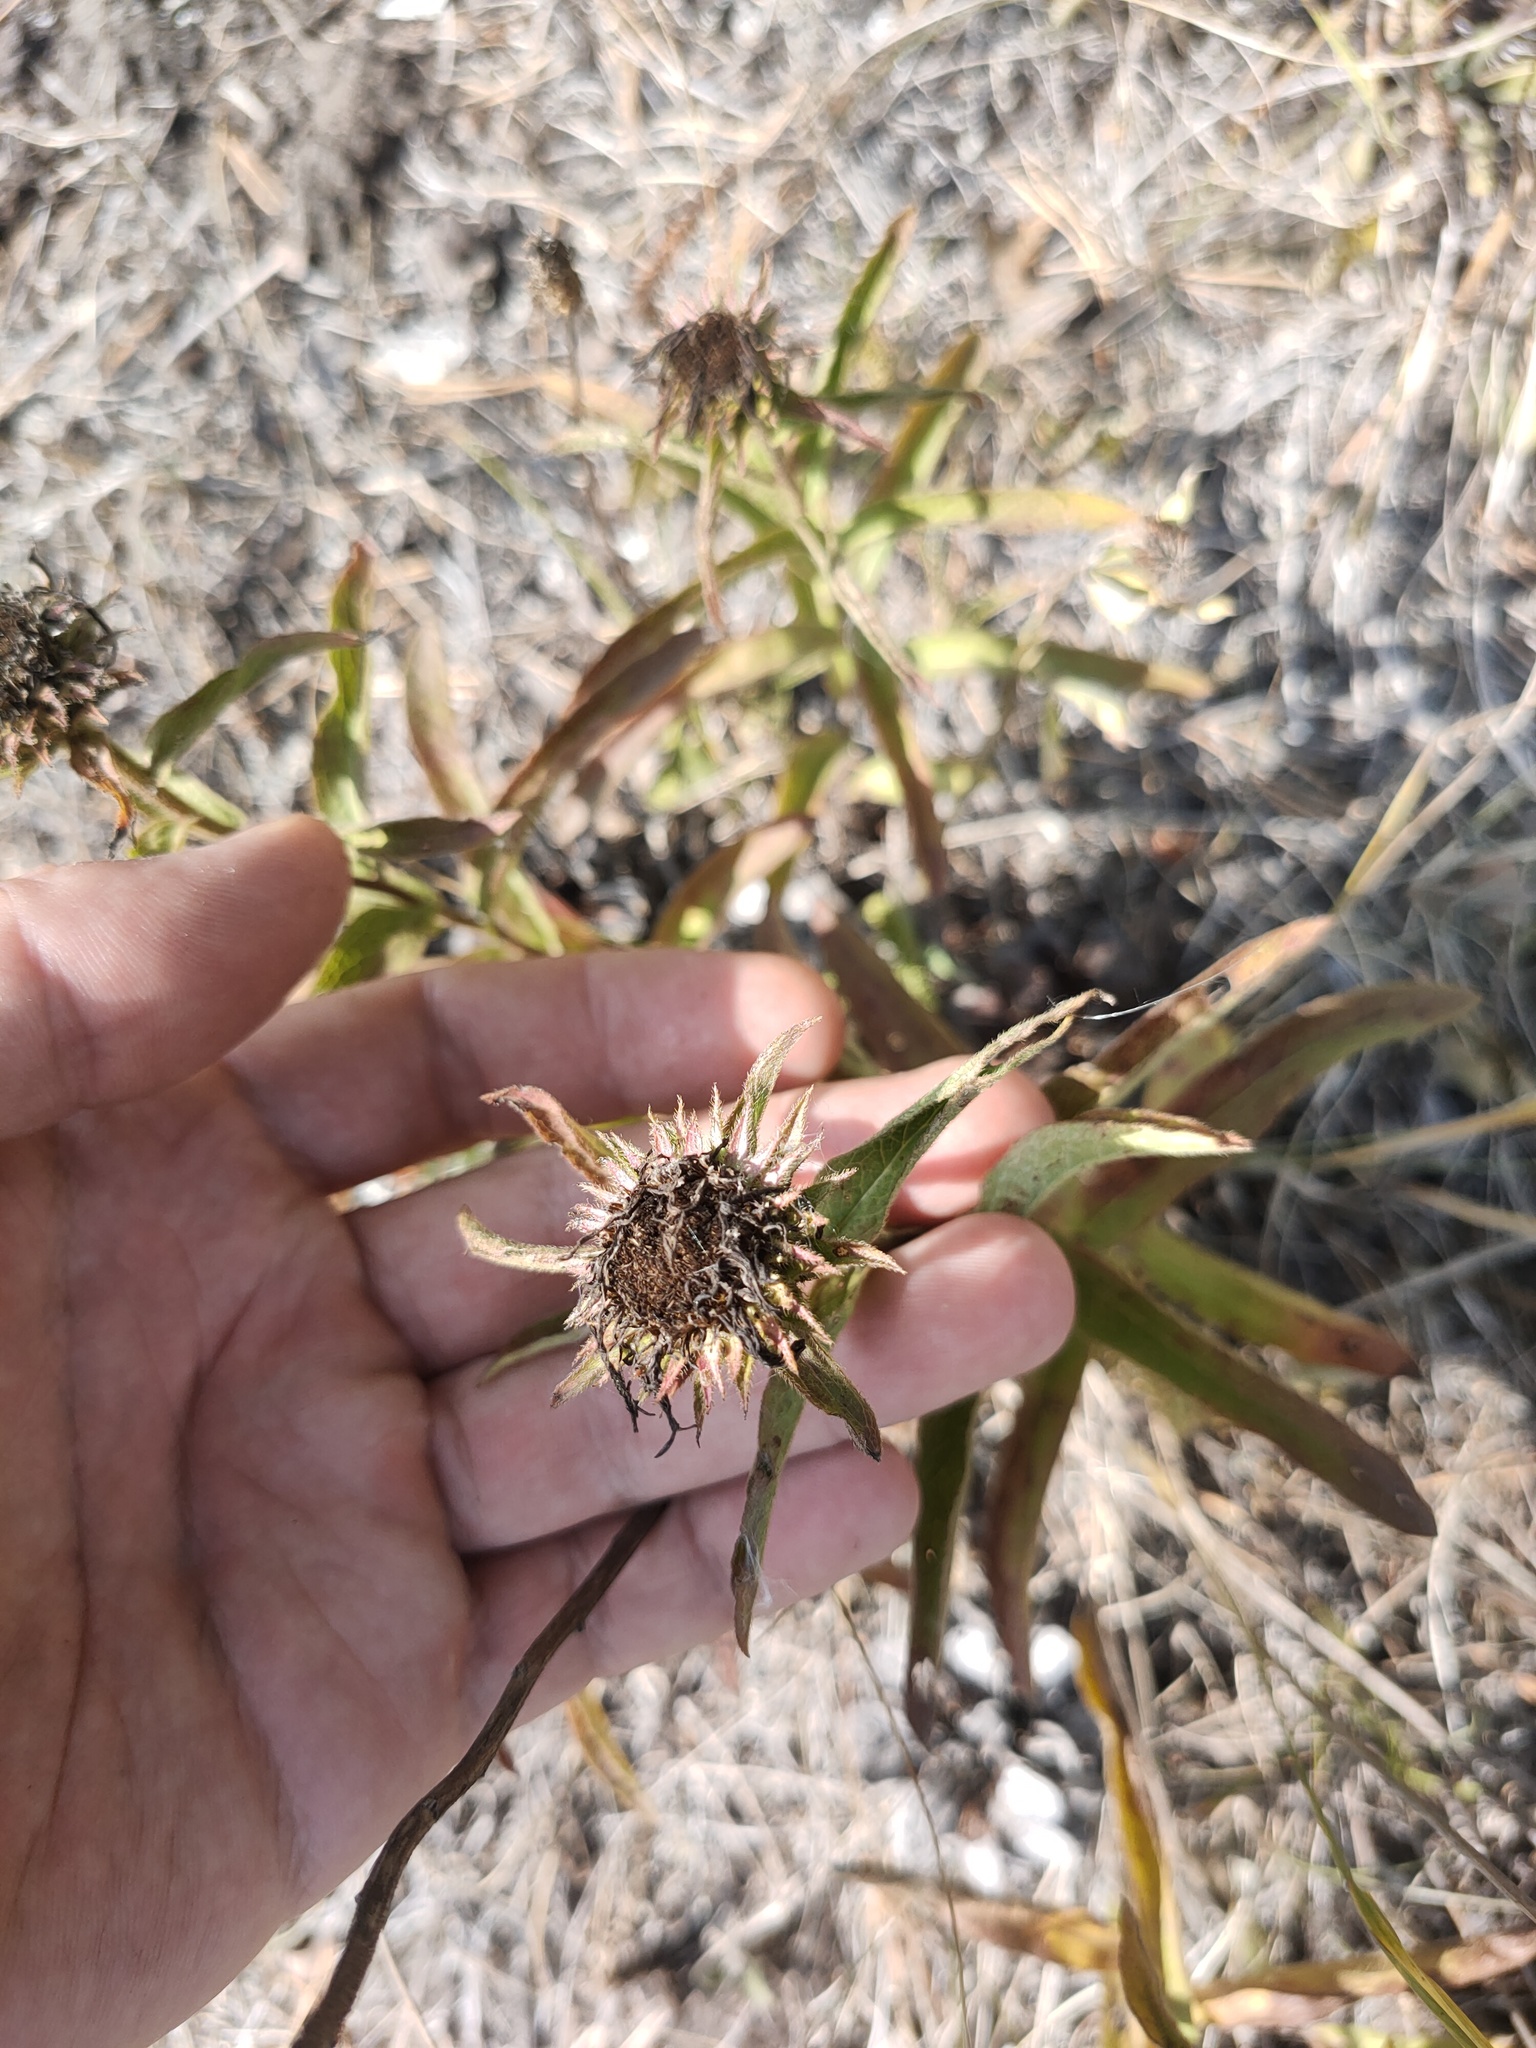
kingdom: Plantae
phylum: Tracheophyta
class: Magnoliopsida
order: Asterales
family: Asteraceae
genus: Pentanema
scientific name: Pentanema hirtum
